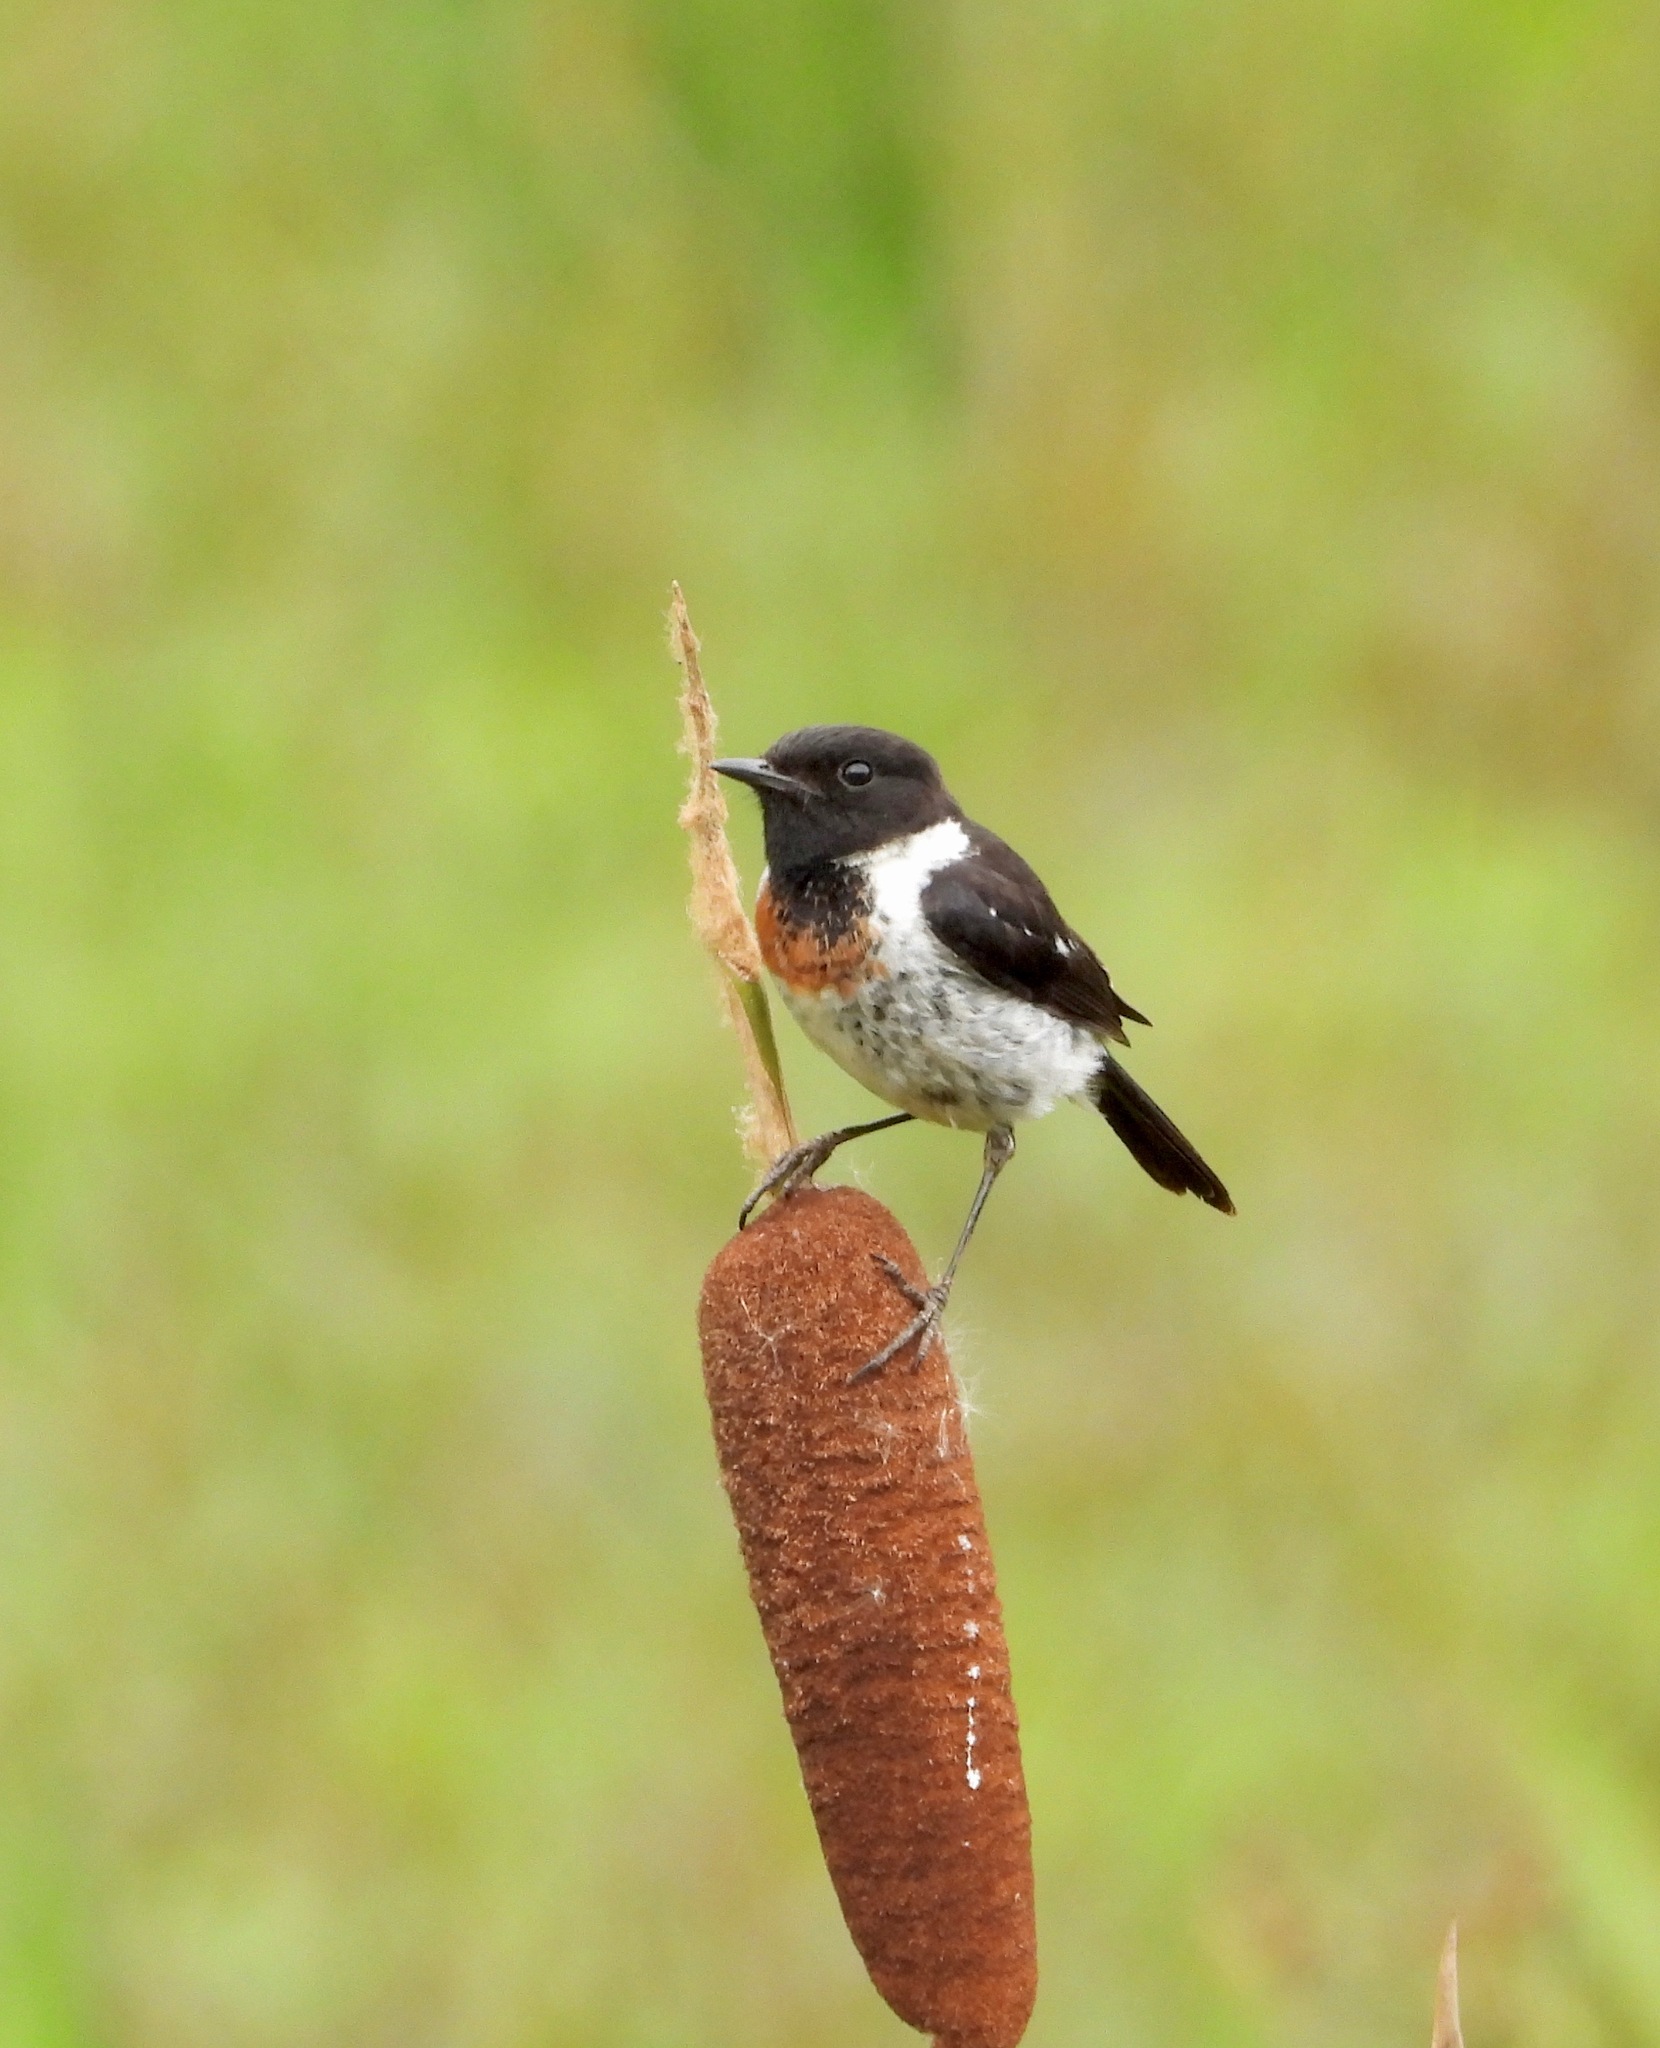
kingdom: Animalia
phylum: Chordata
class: Aves
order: Passeriformes
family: Muscicapidae
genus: Saxicola
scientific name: Saxicola torquatus
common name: African stonechat
